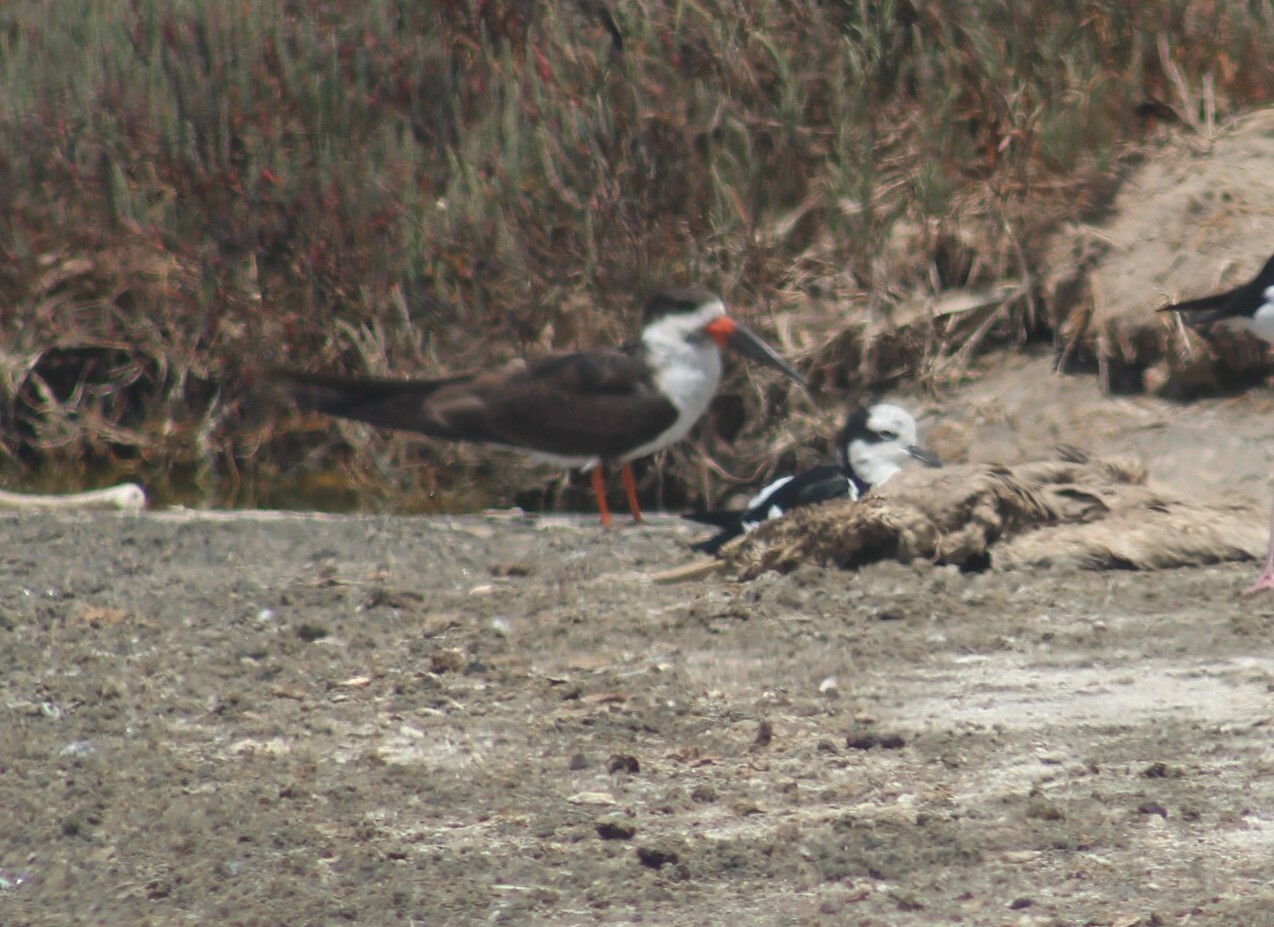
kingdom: Animalia
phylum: Chordata
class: Aves
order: Charadriiformes
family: Laridae
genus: Rynchops
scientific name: Rynchops niger
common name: Black skimmer
